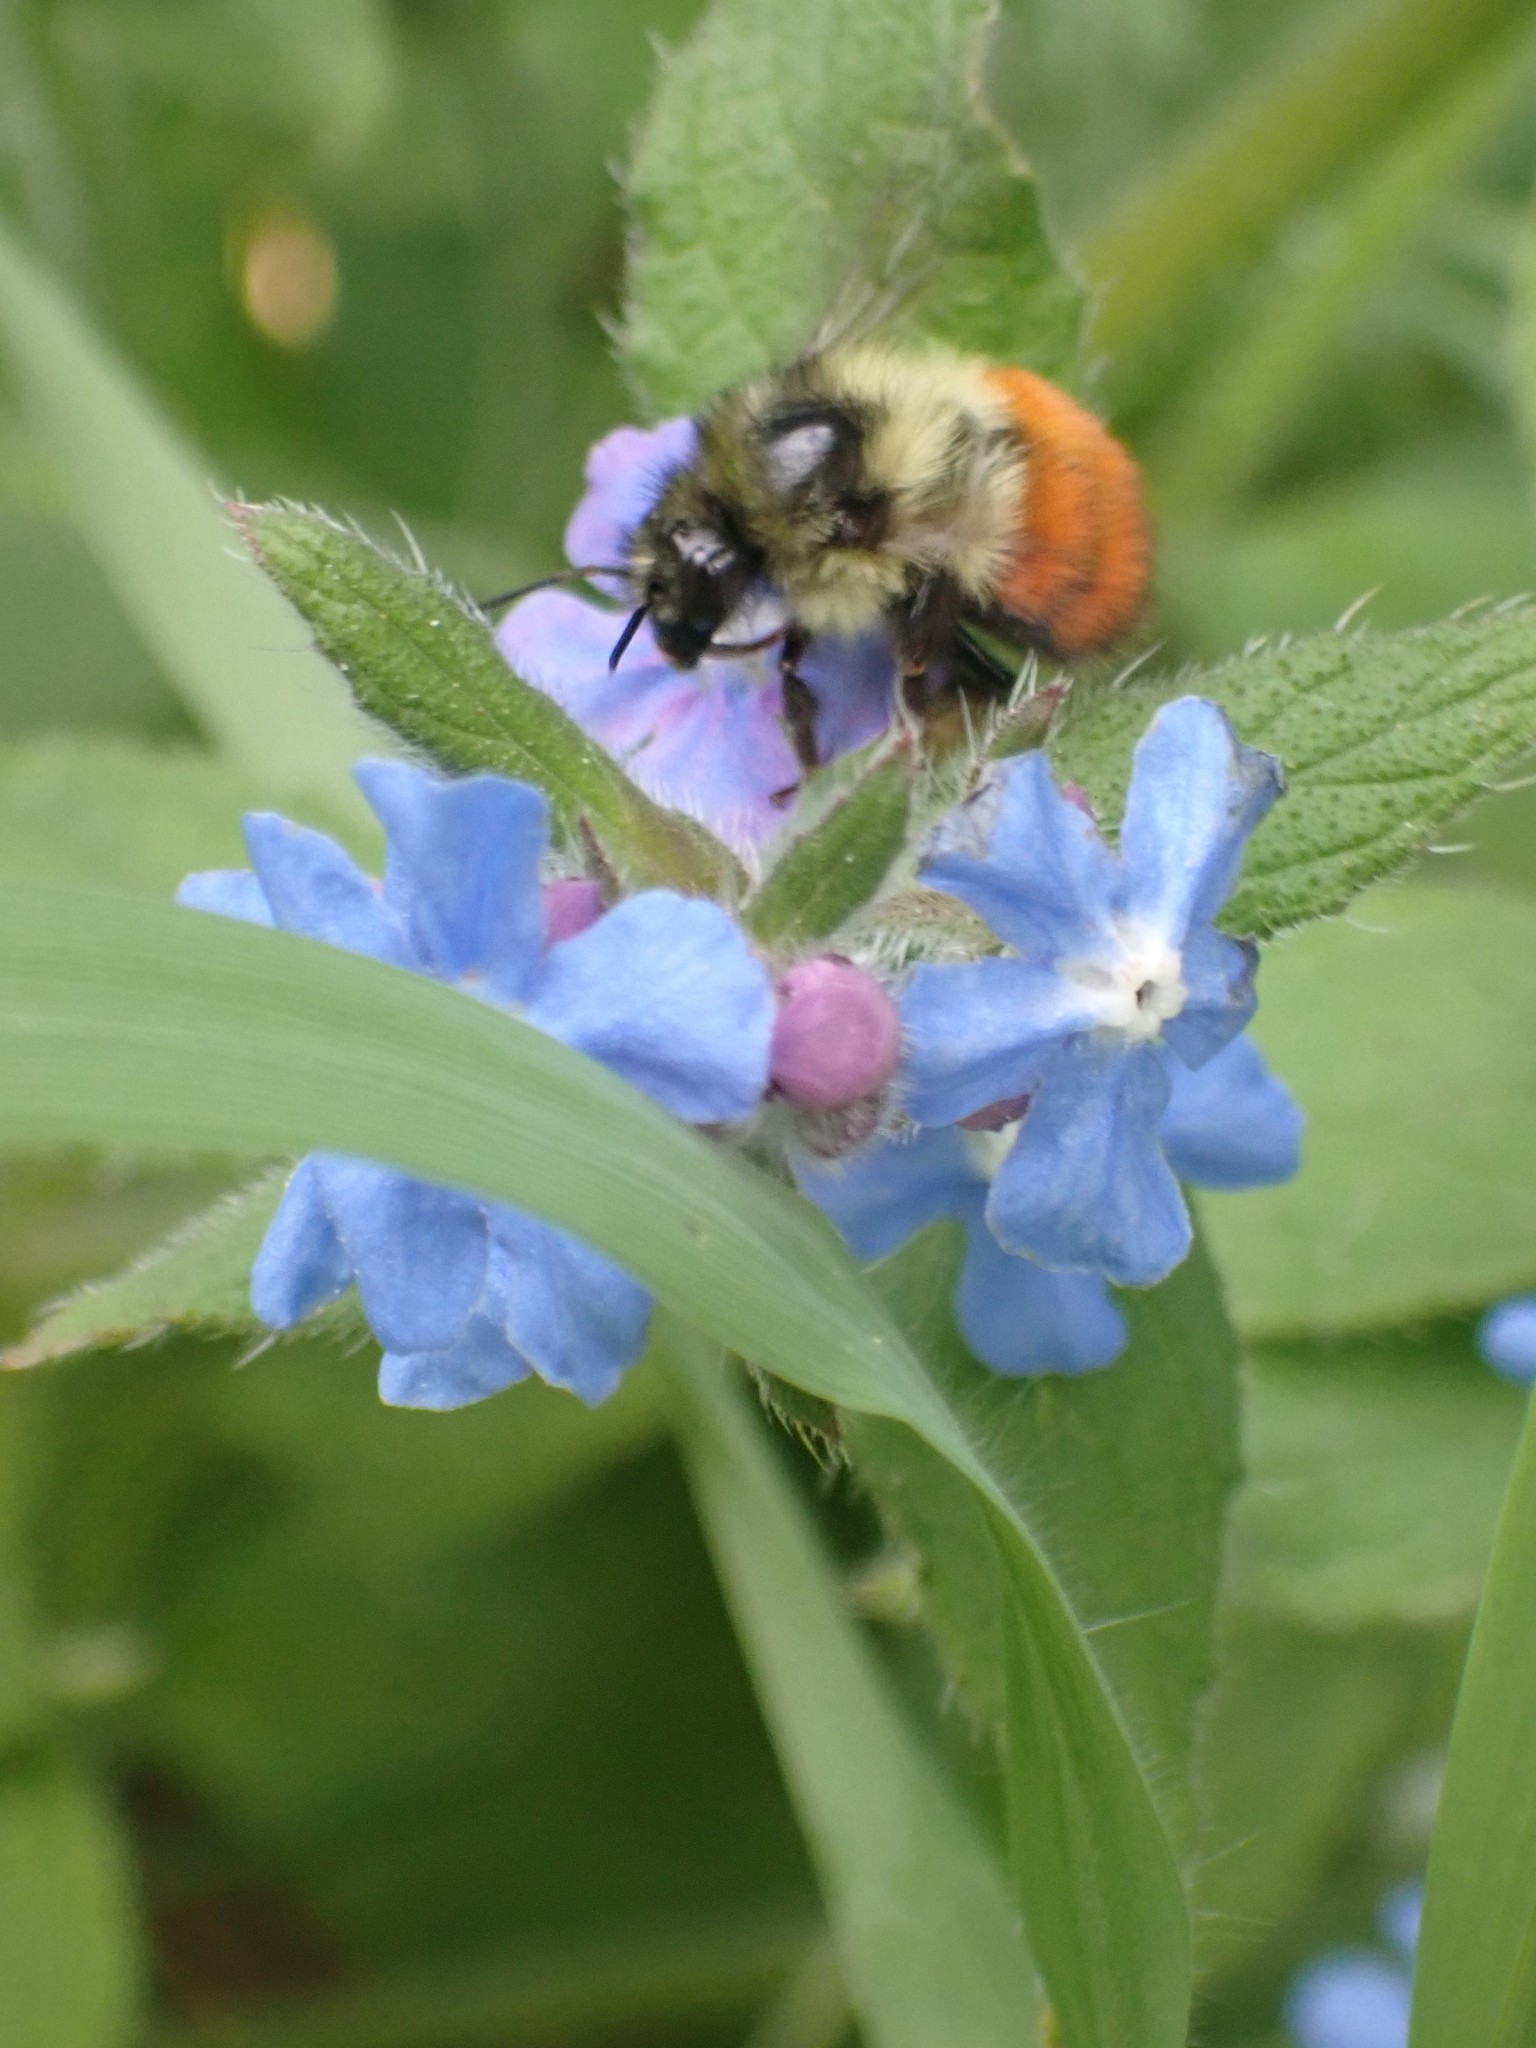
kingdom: Animalia
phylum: Arthropoda
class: Insecta
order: Hymenoptera
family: Apidae
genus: Bombus
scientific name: Bombus melanopygus
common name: Black tail bumble bee
